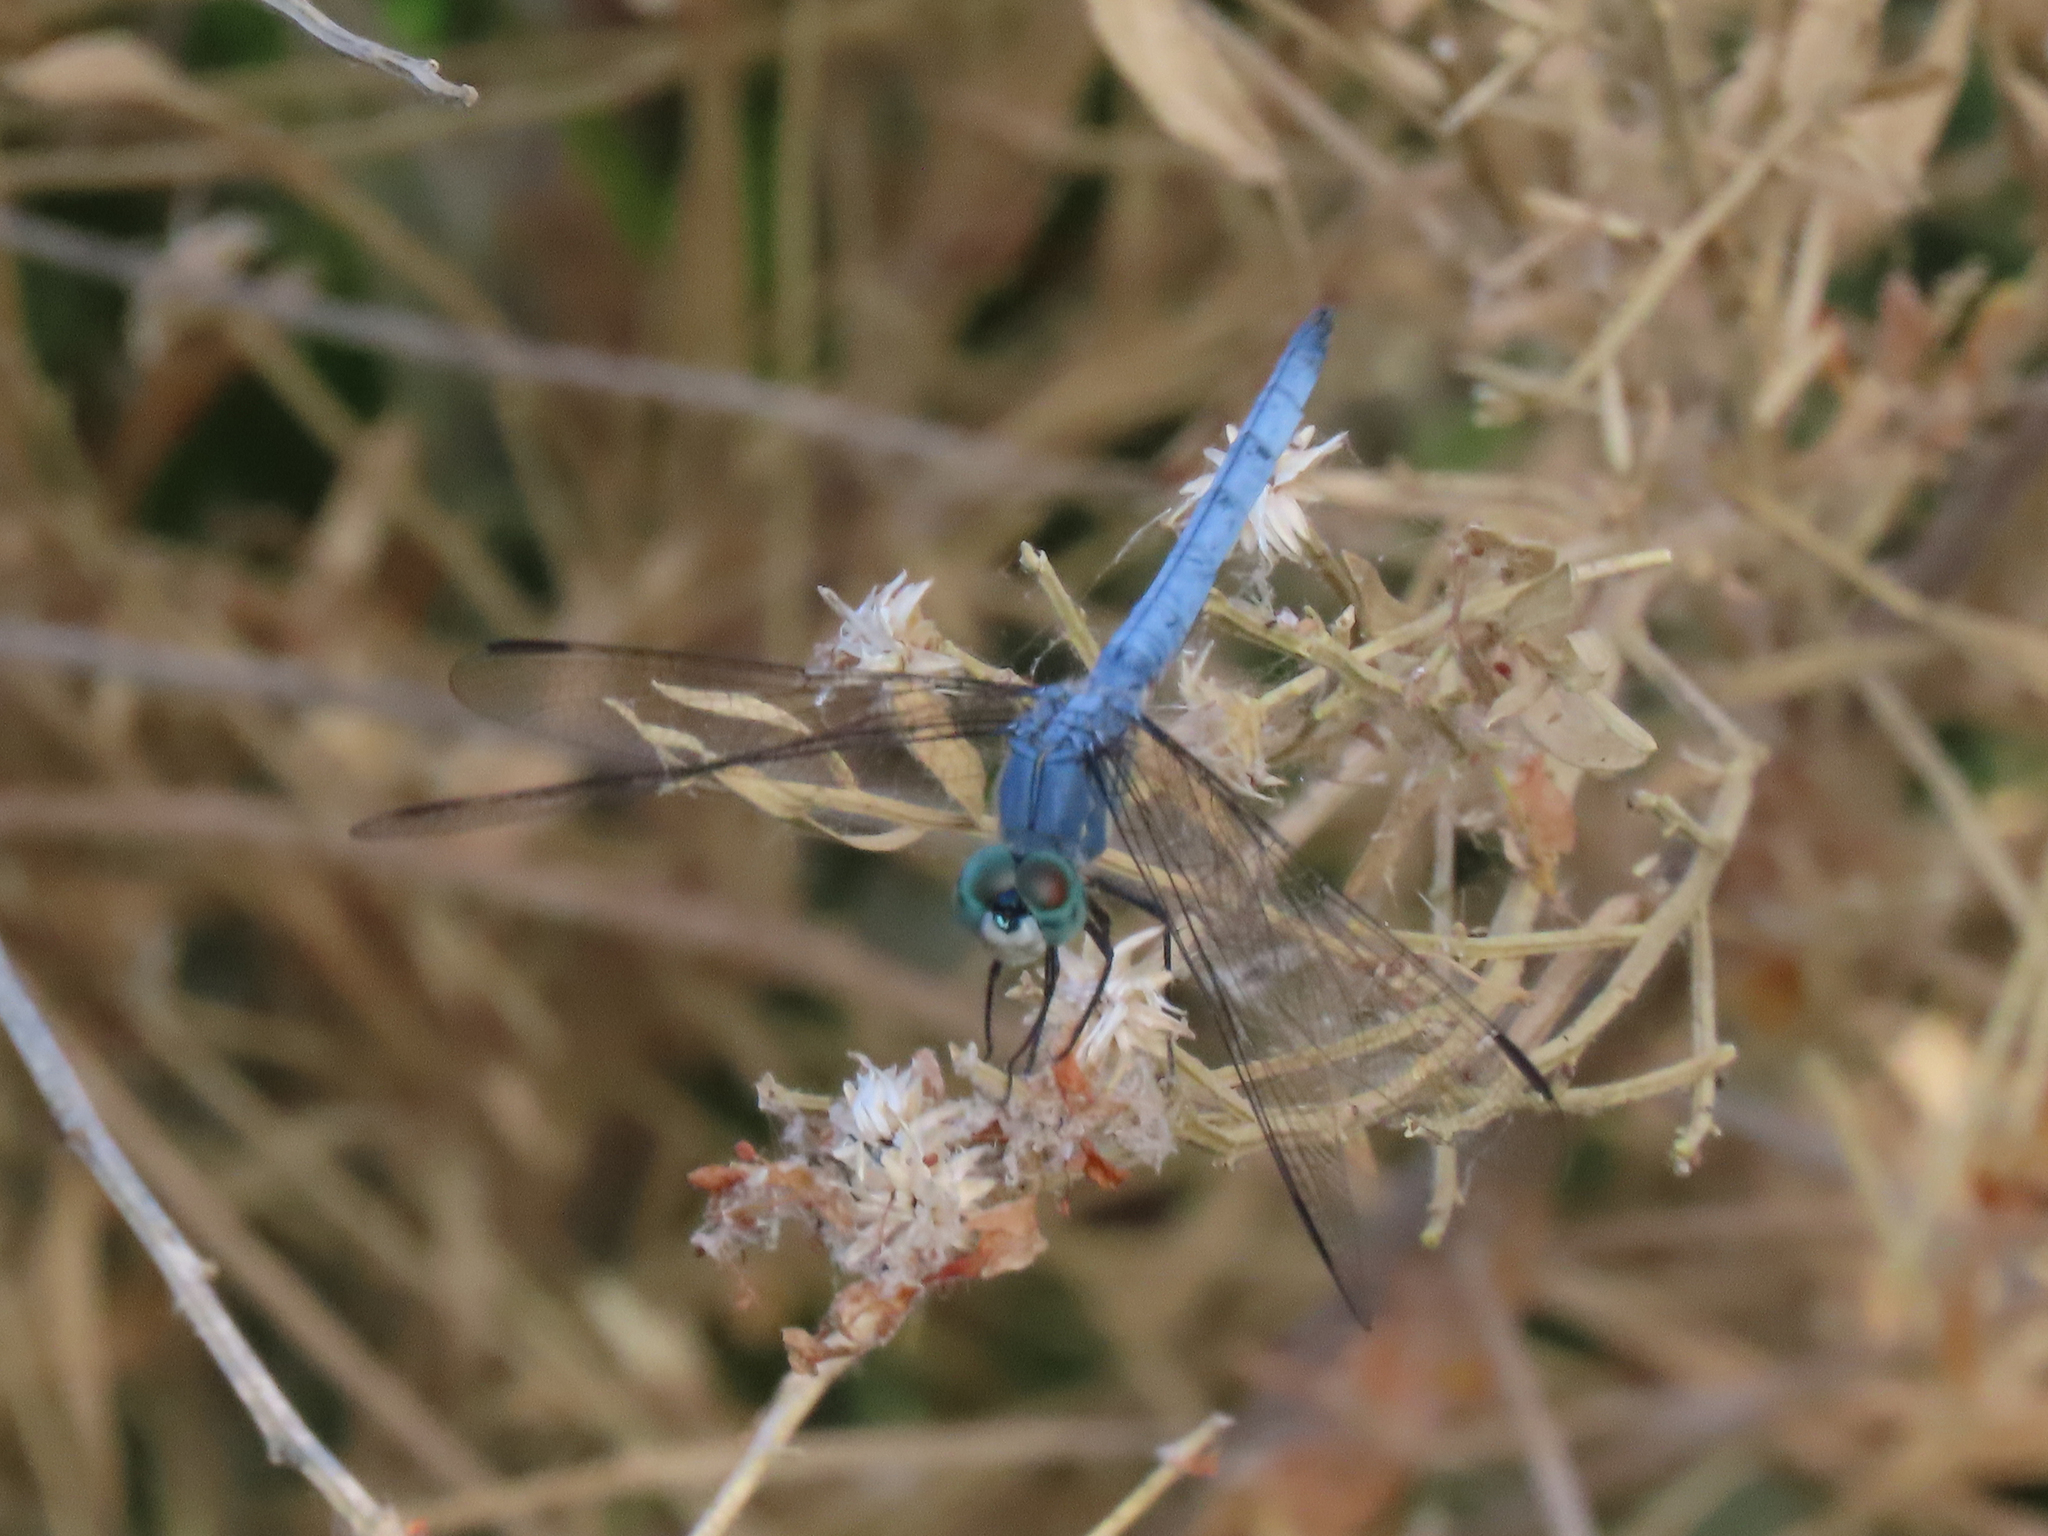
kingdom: Animalia
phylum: Arthropoda
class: Insecta
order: Odonata
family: Libellulidae
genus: Pachydiplax
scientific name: Pachydiplax longipennis
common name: Blue dasher
